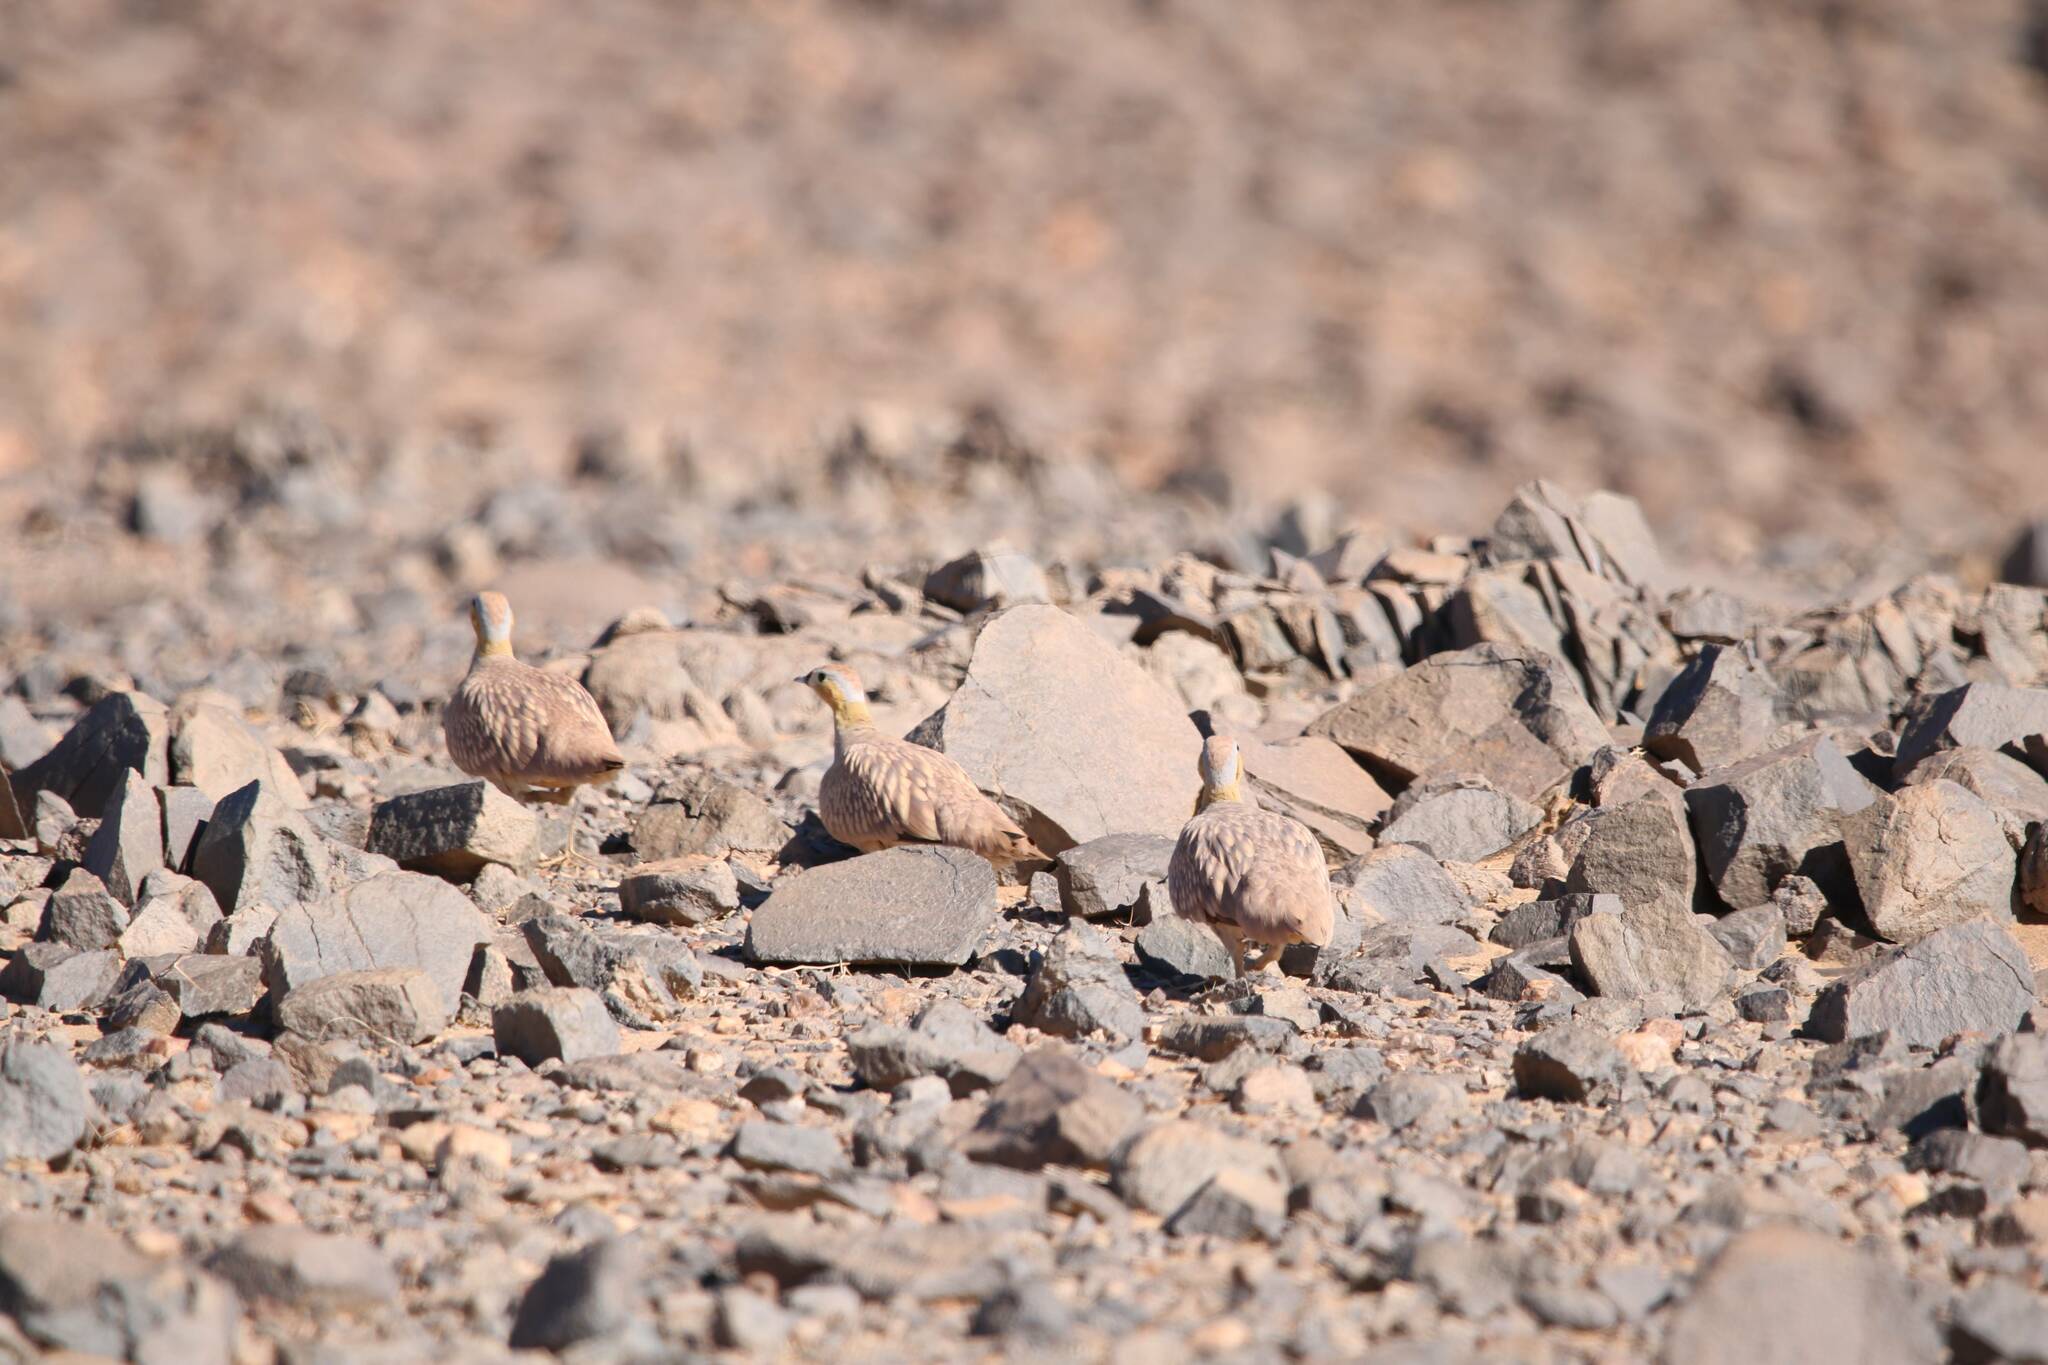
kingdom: Animalia
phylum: Chordata
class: Aves
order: Pteroclidiformes
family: Pteroclididae
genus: Pterocles
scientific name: Pterocles coronatus
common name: Crowned sandgrouse
